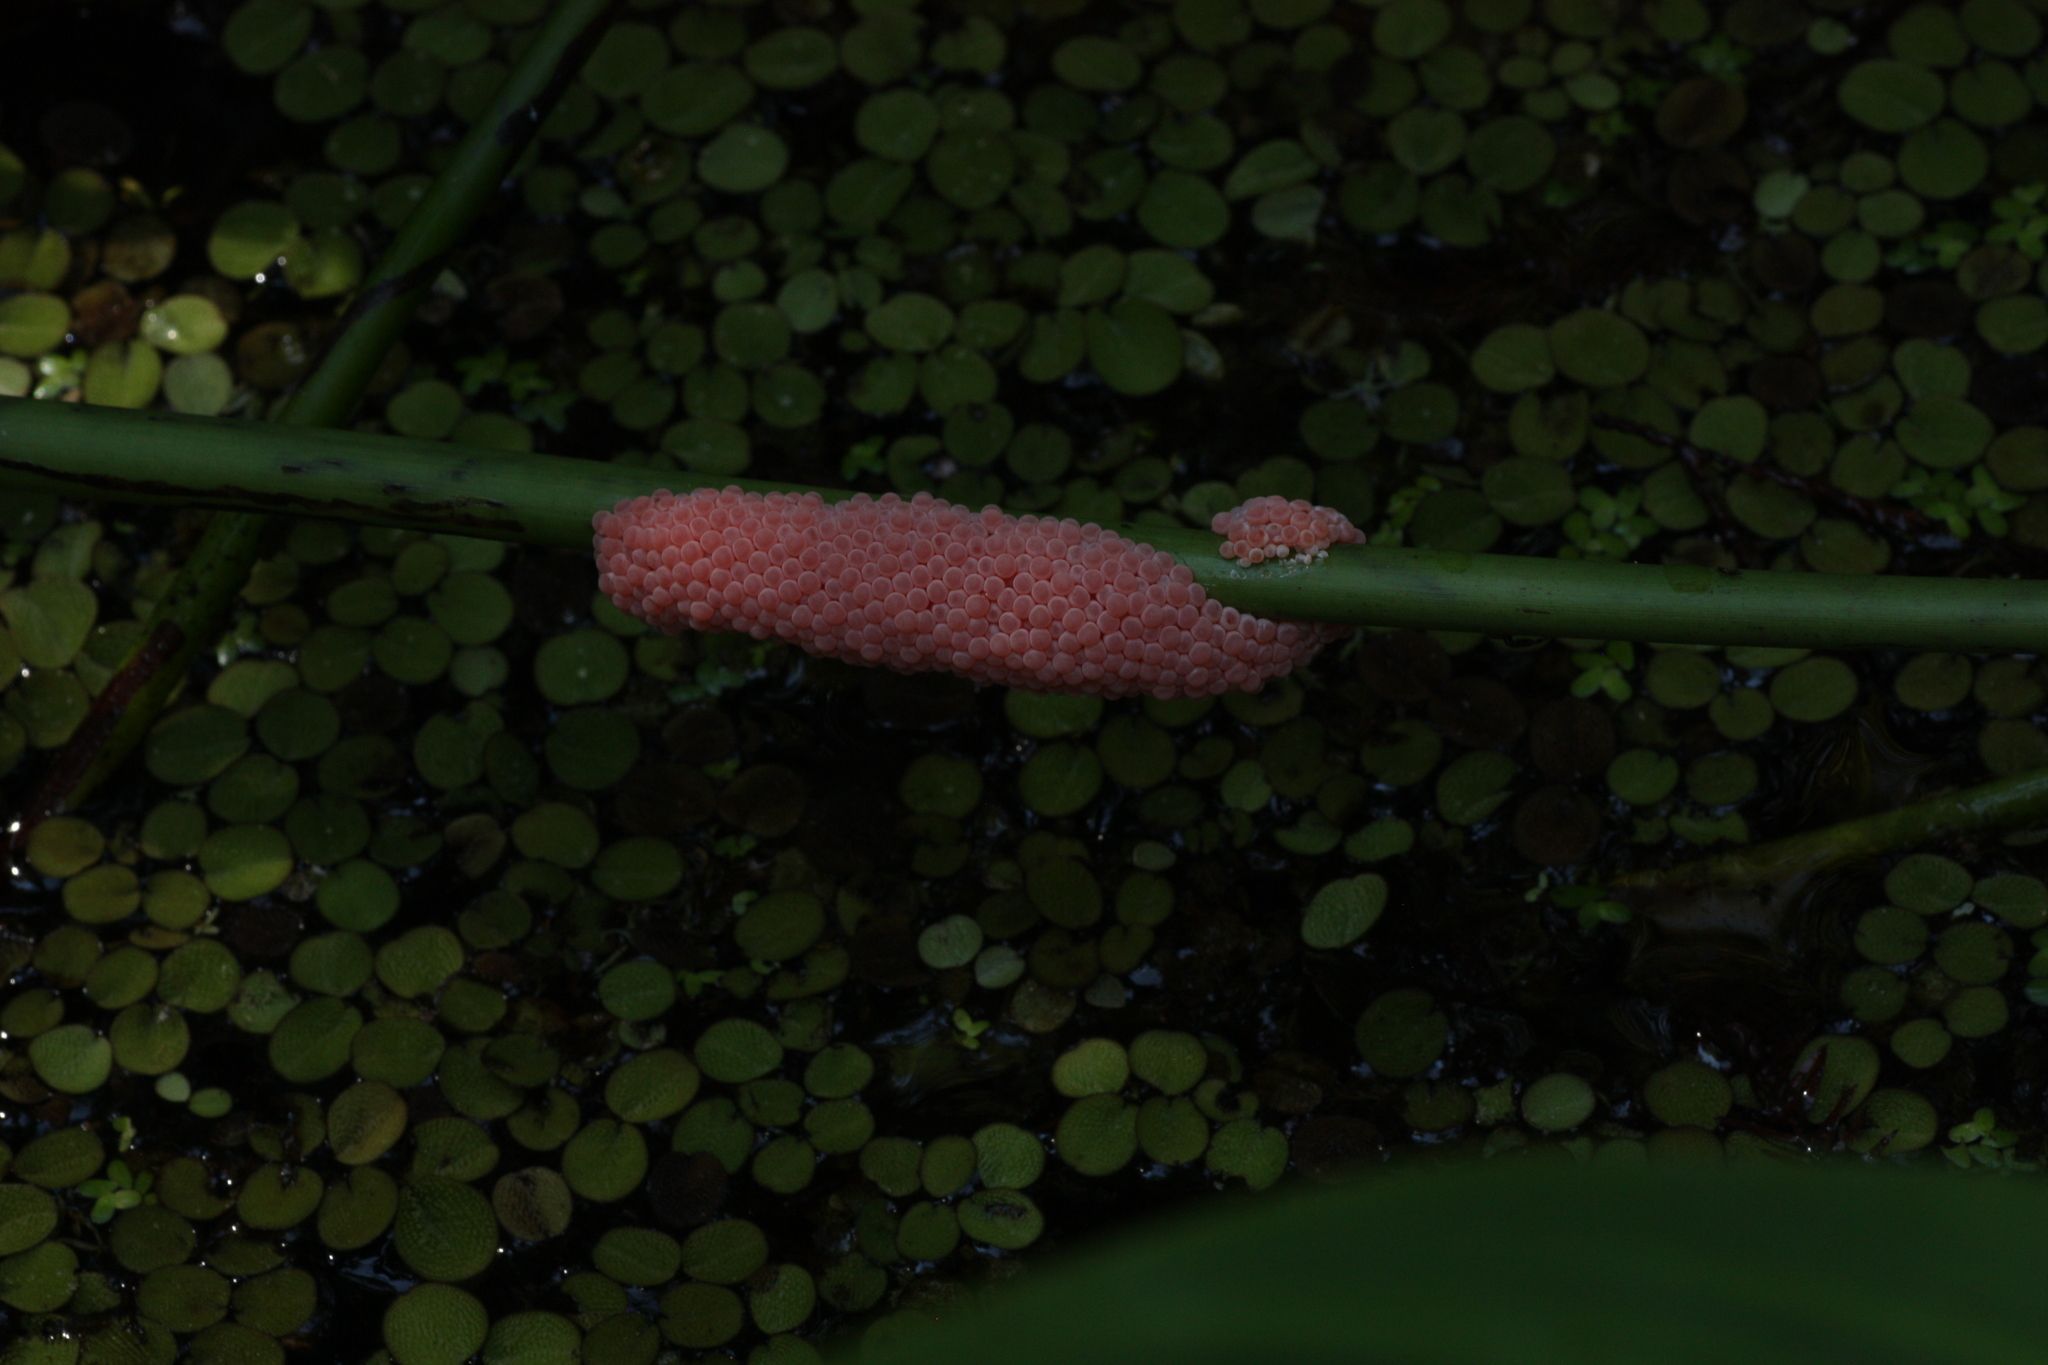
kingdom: Animalia
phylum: Mollusca
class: Gastropoda
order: Architaenioglossa
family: Ampullariidae
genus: Pomacea
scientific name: Pomacea maculata
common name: Giant applesnail
